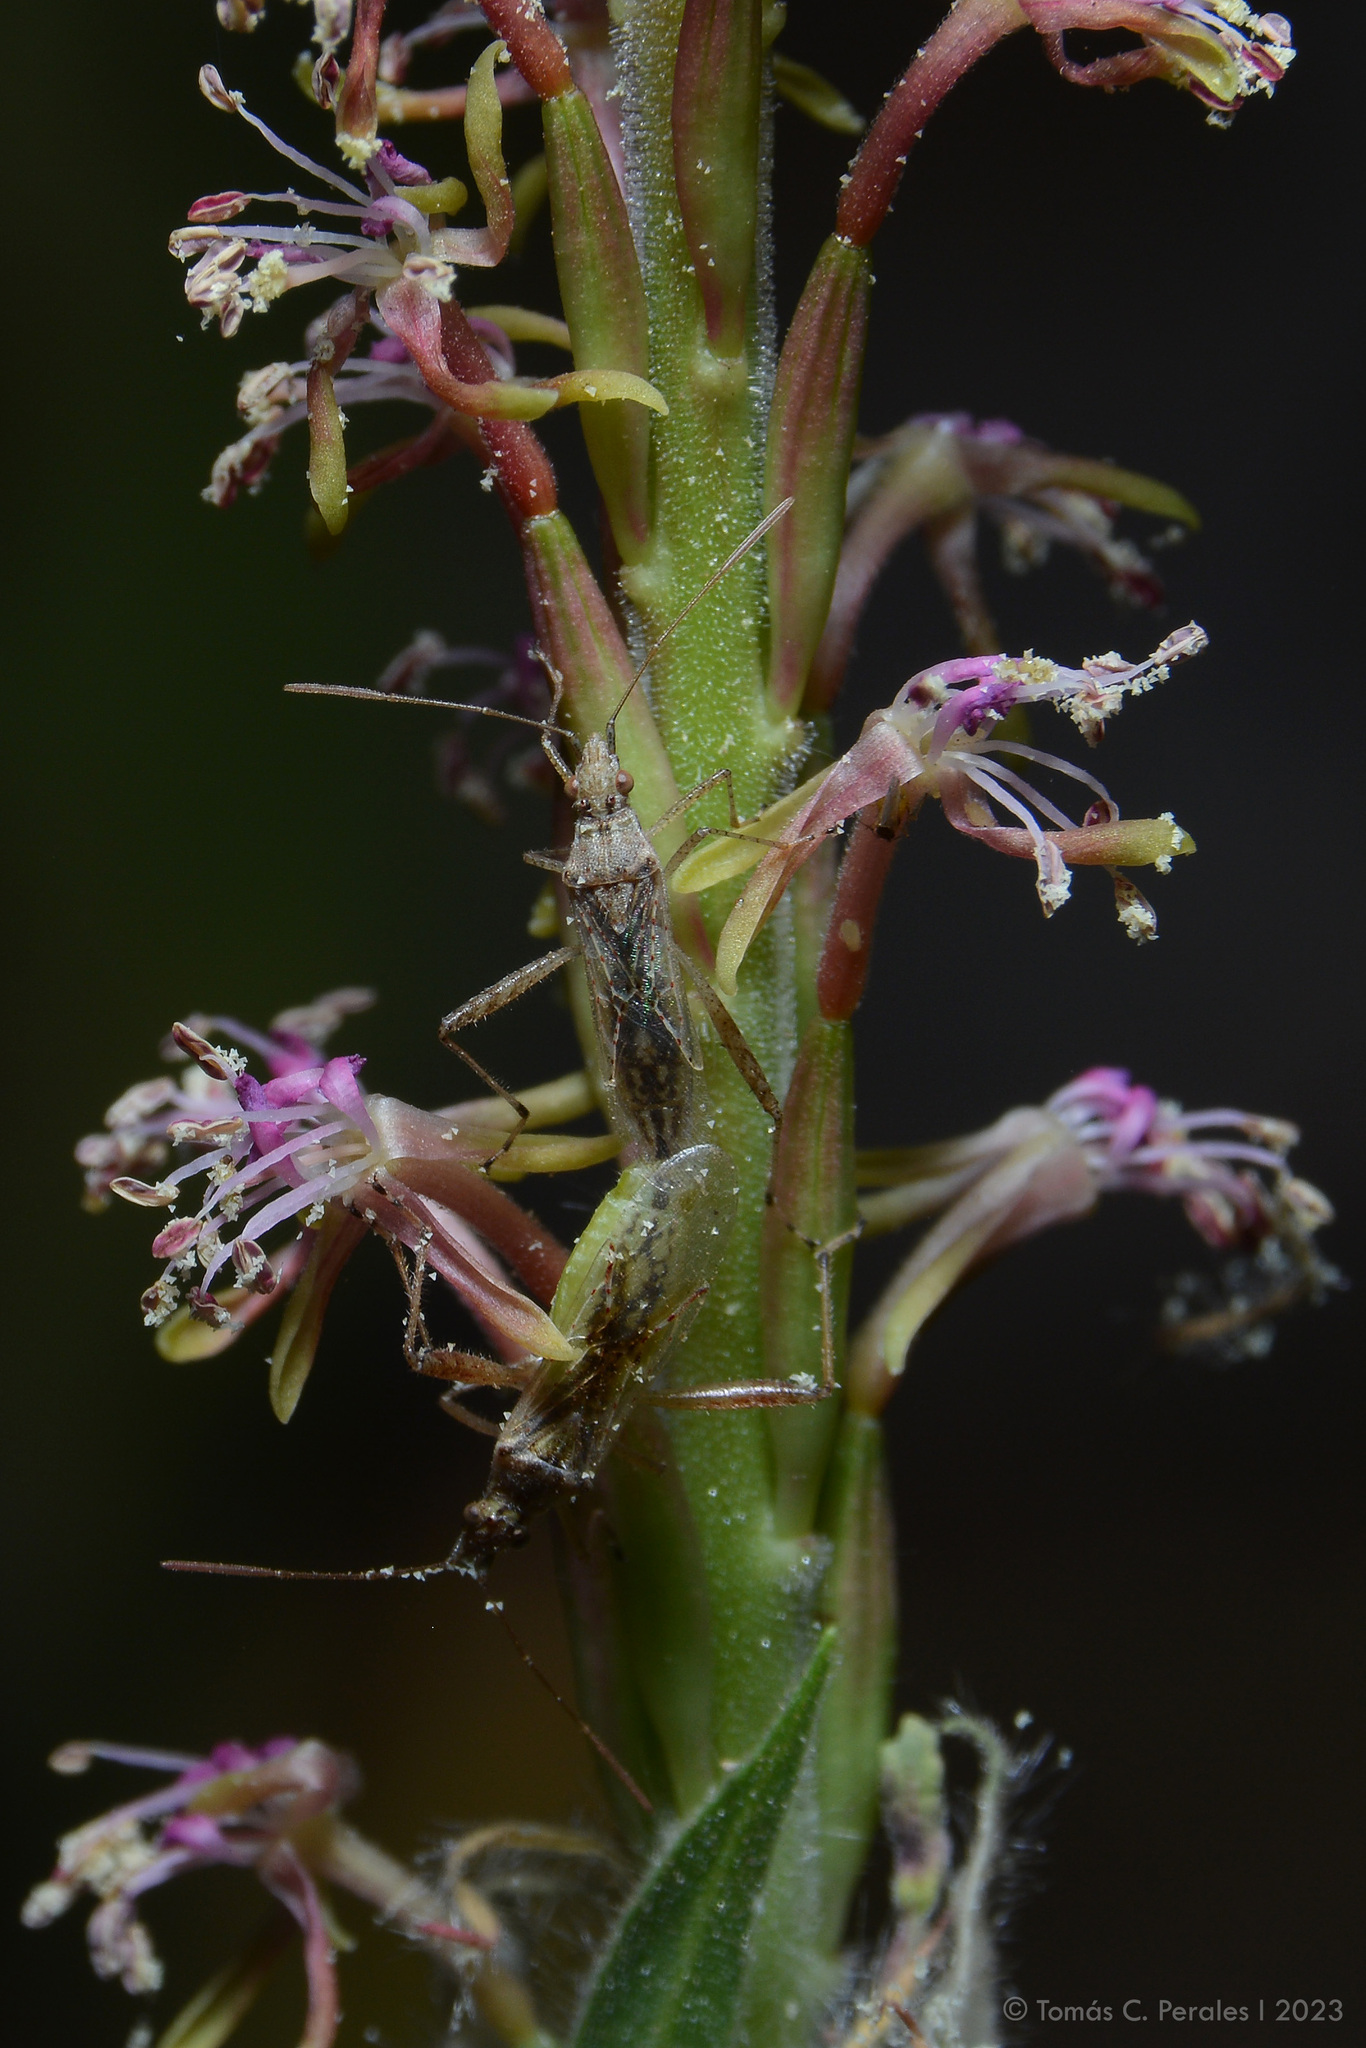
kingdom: Plantae
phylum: Tracheophyta
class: Magnoliopsida
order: Myrtales
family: Onagraceae
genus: Oenothera
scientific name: Oenothera curtiflora
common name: Velvetweed
